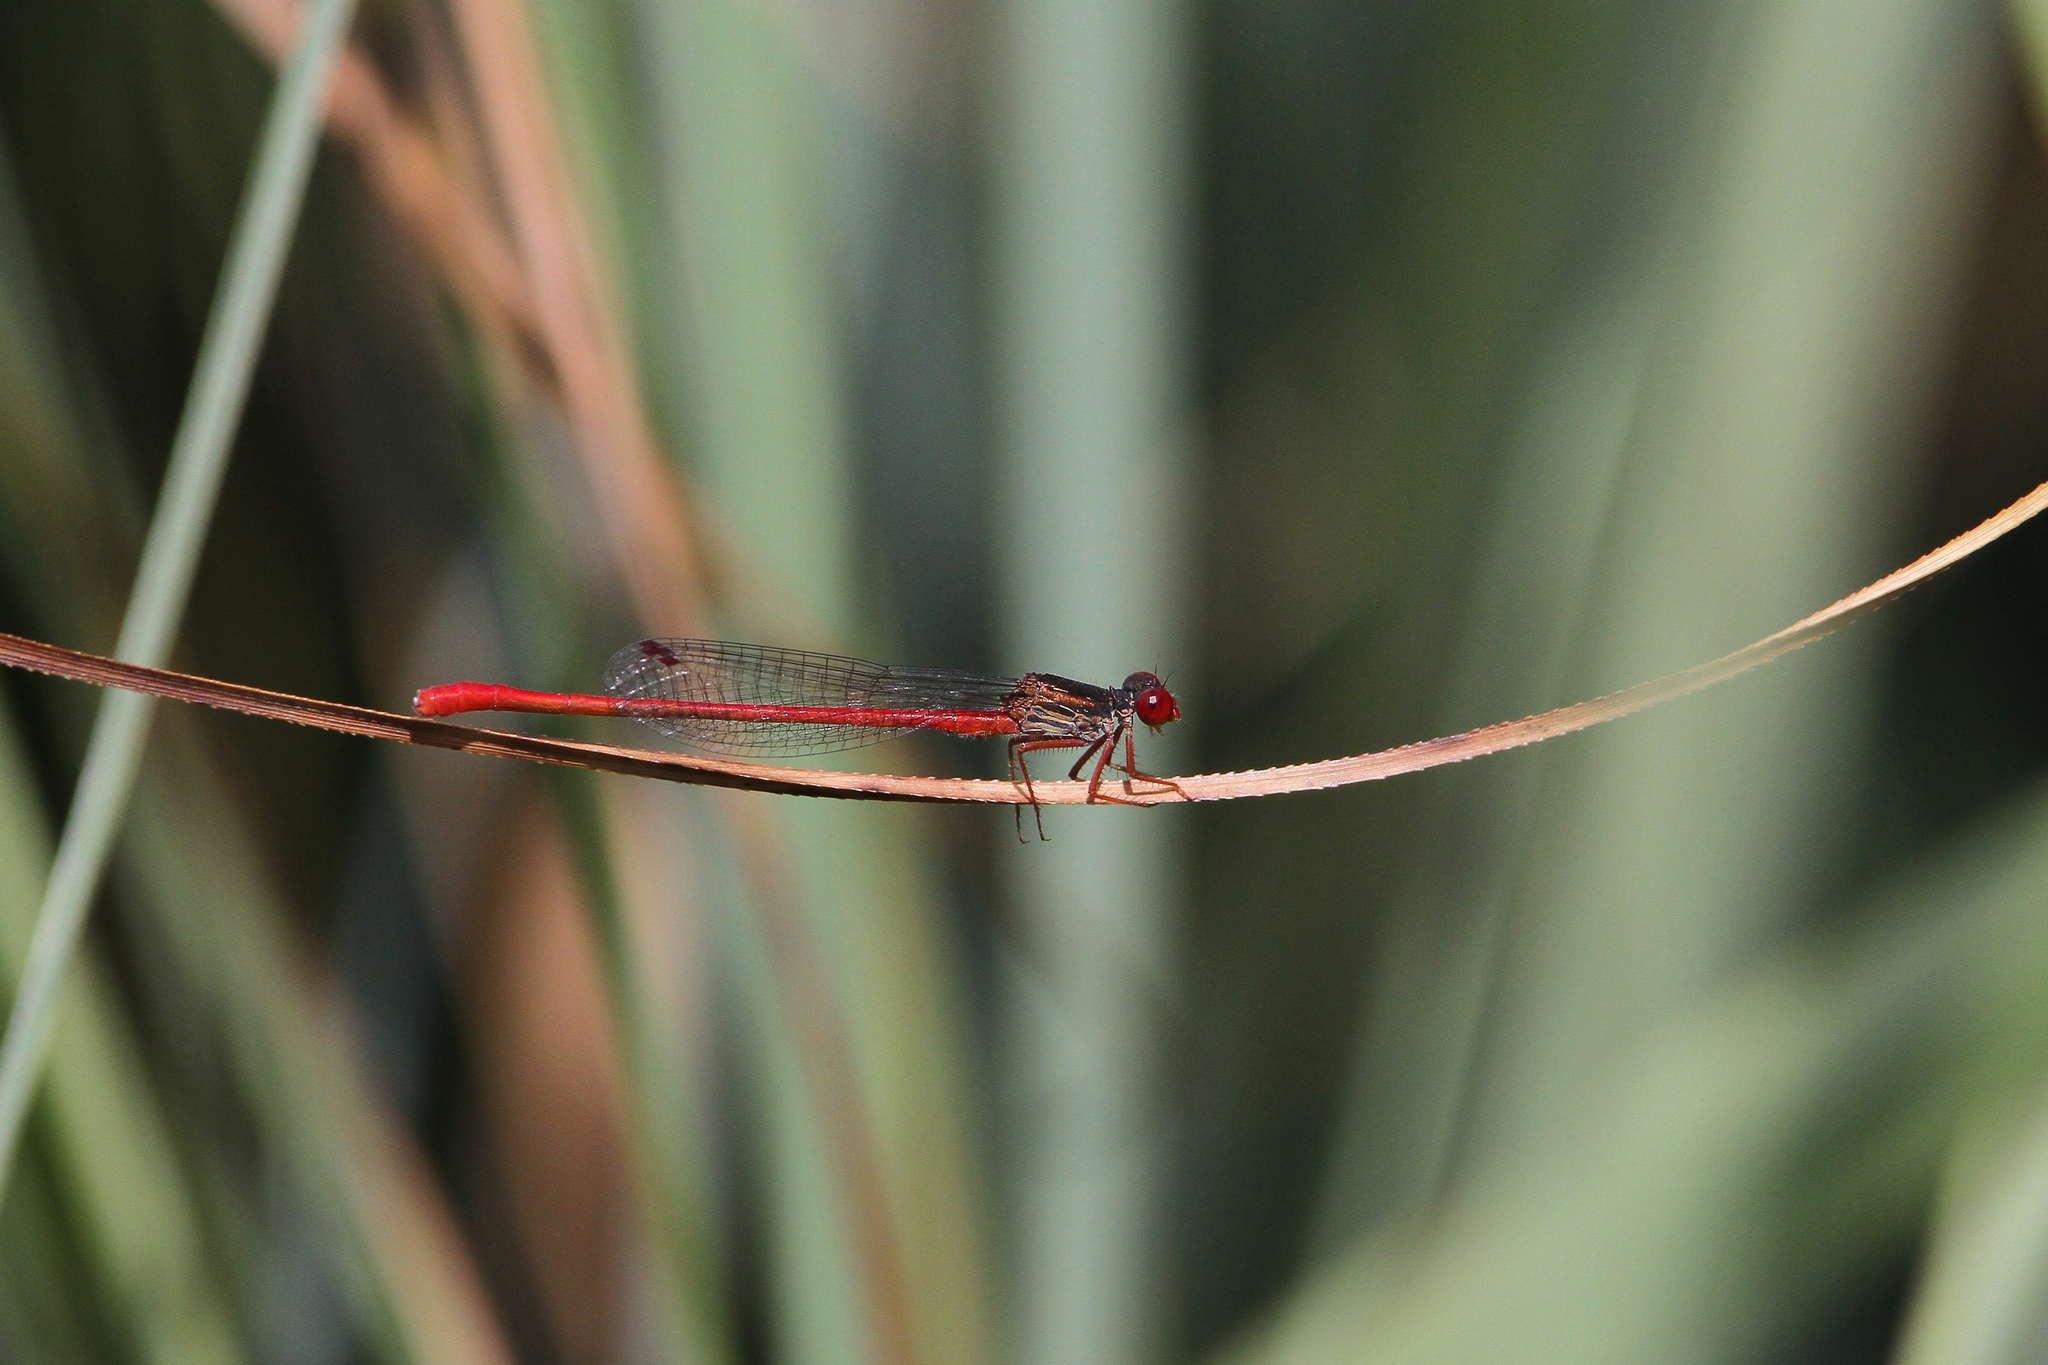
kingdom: Animalia
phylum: Arthropoda
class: Insecta
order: Odonata
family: Coenagrionidae
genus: Ceriagrion
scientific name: Ceriagrion tenellum
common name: Small red damselfly
